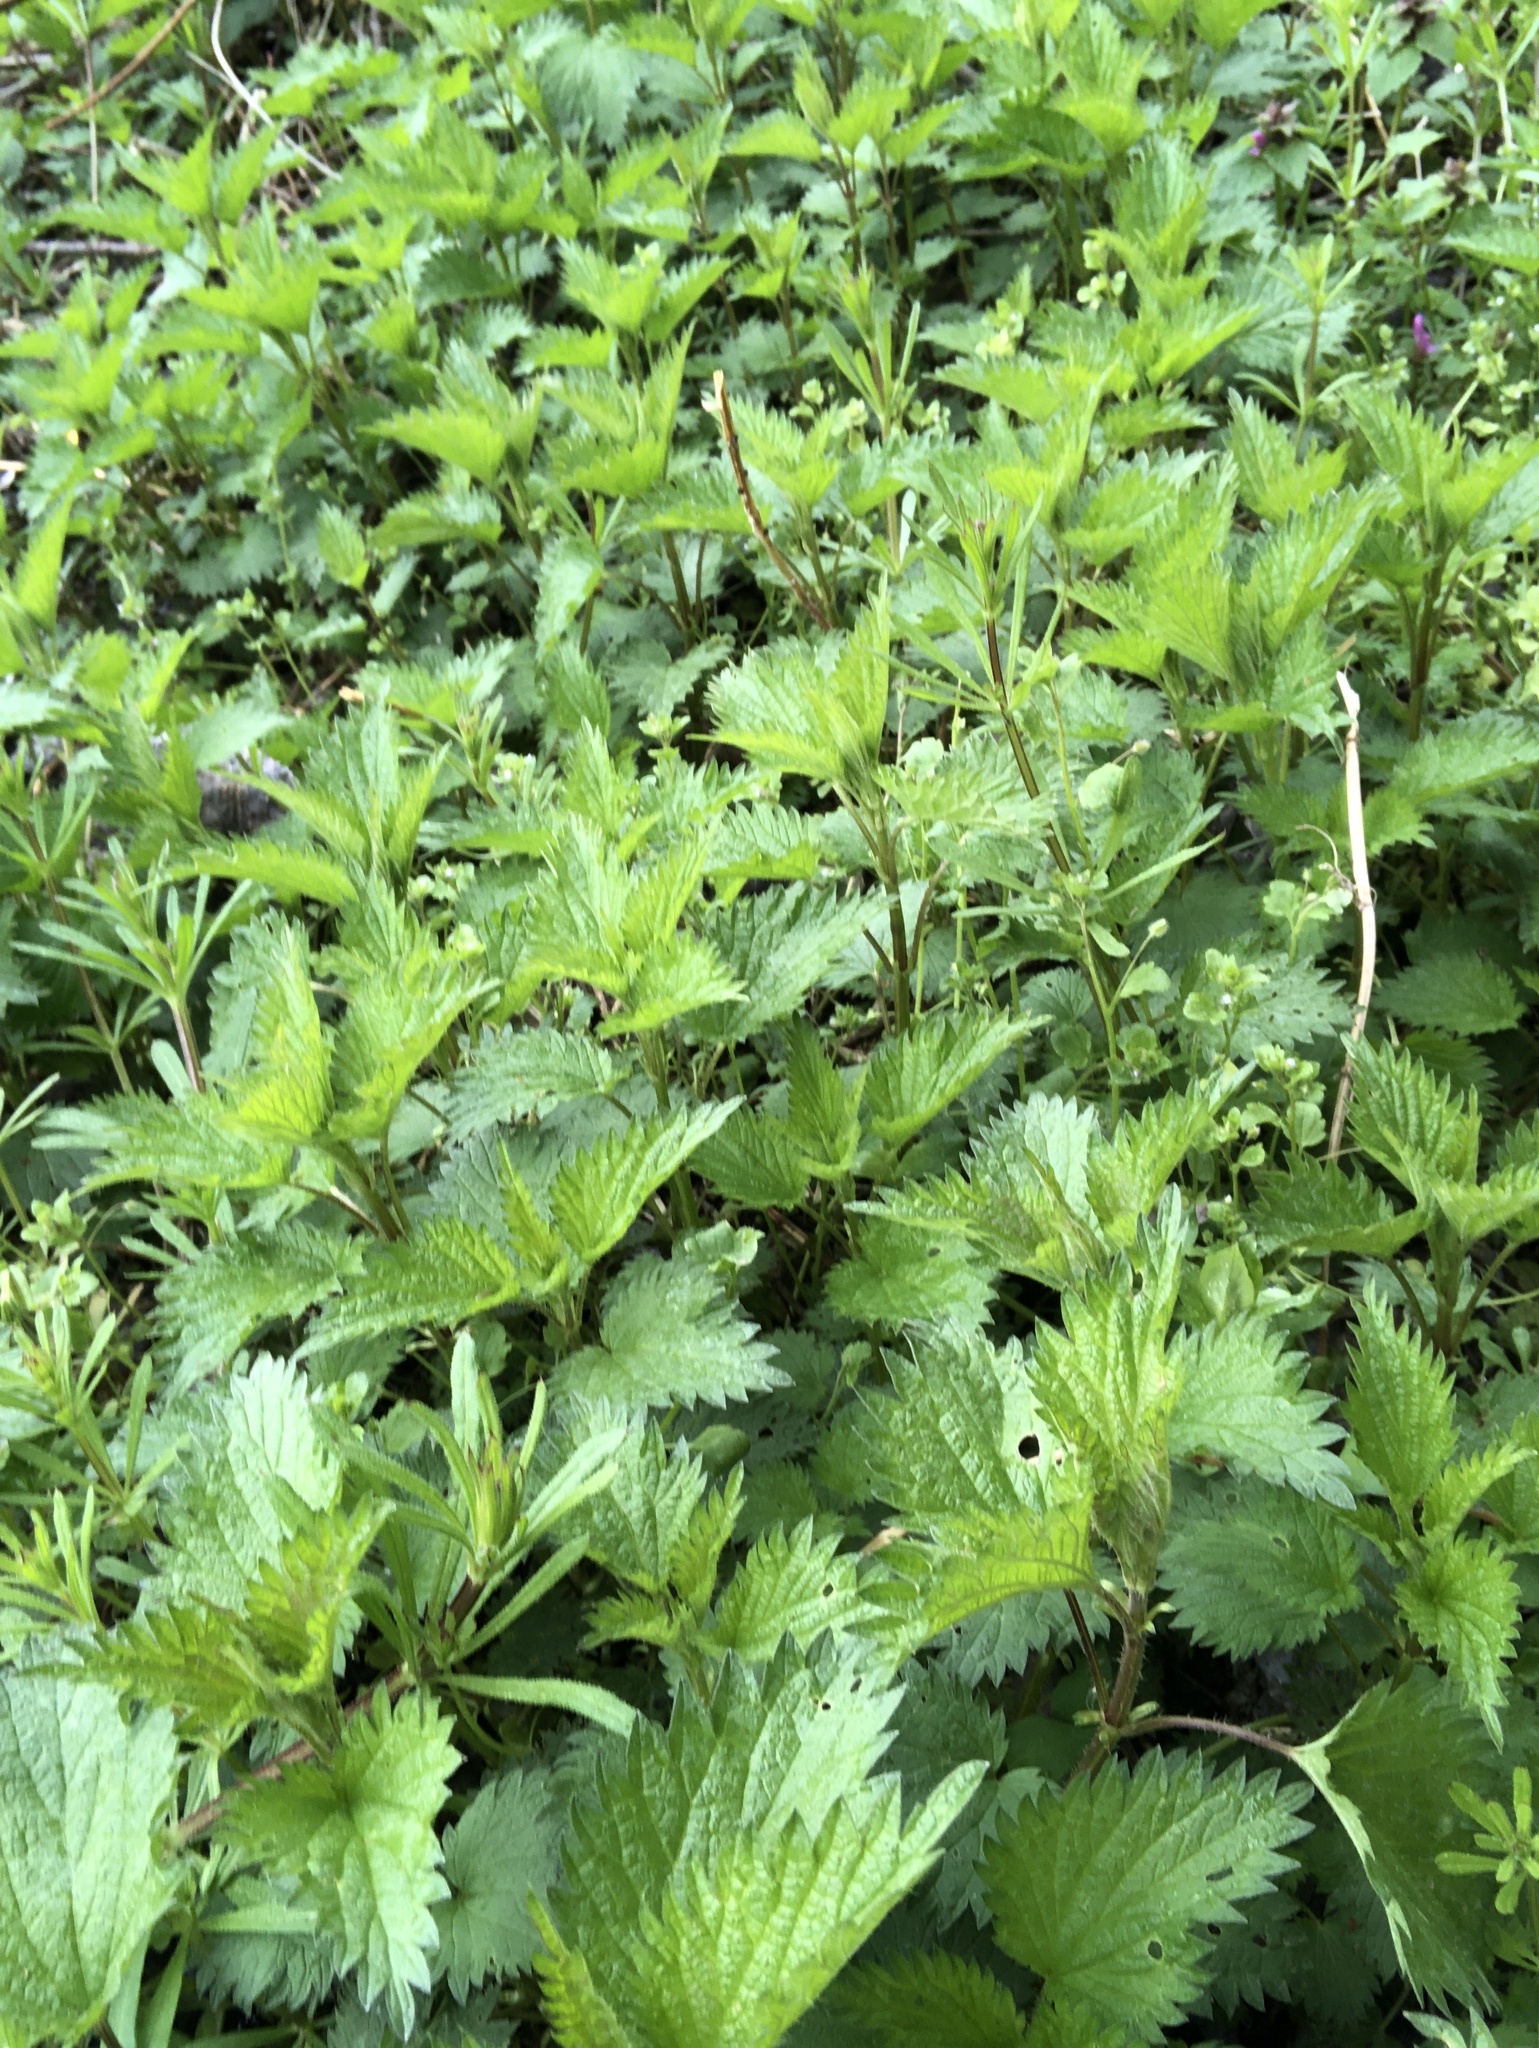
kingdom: Plantae
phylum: Tracheophyta
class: Magnoliopsida
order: Rosales
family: Urticaceae
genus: Urtica
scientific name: Urtica dioica
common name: Common nettle
